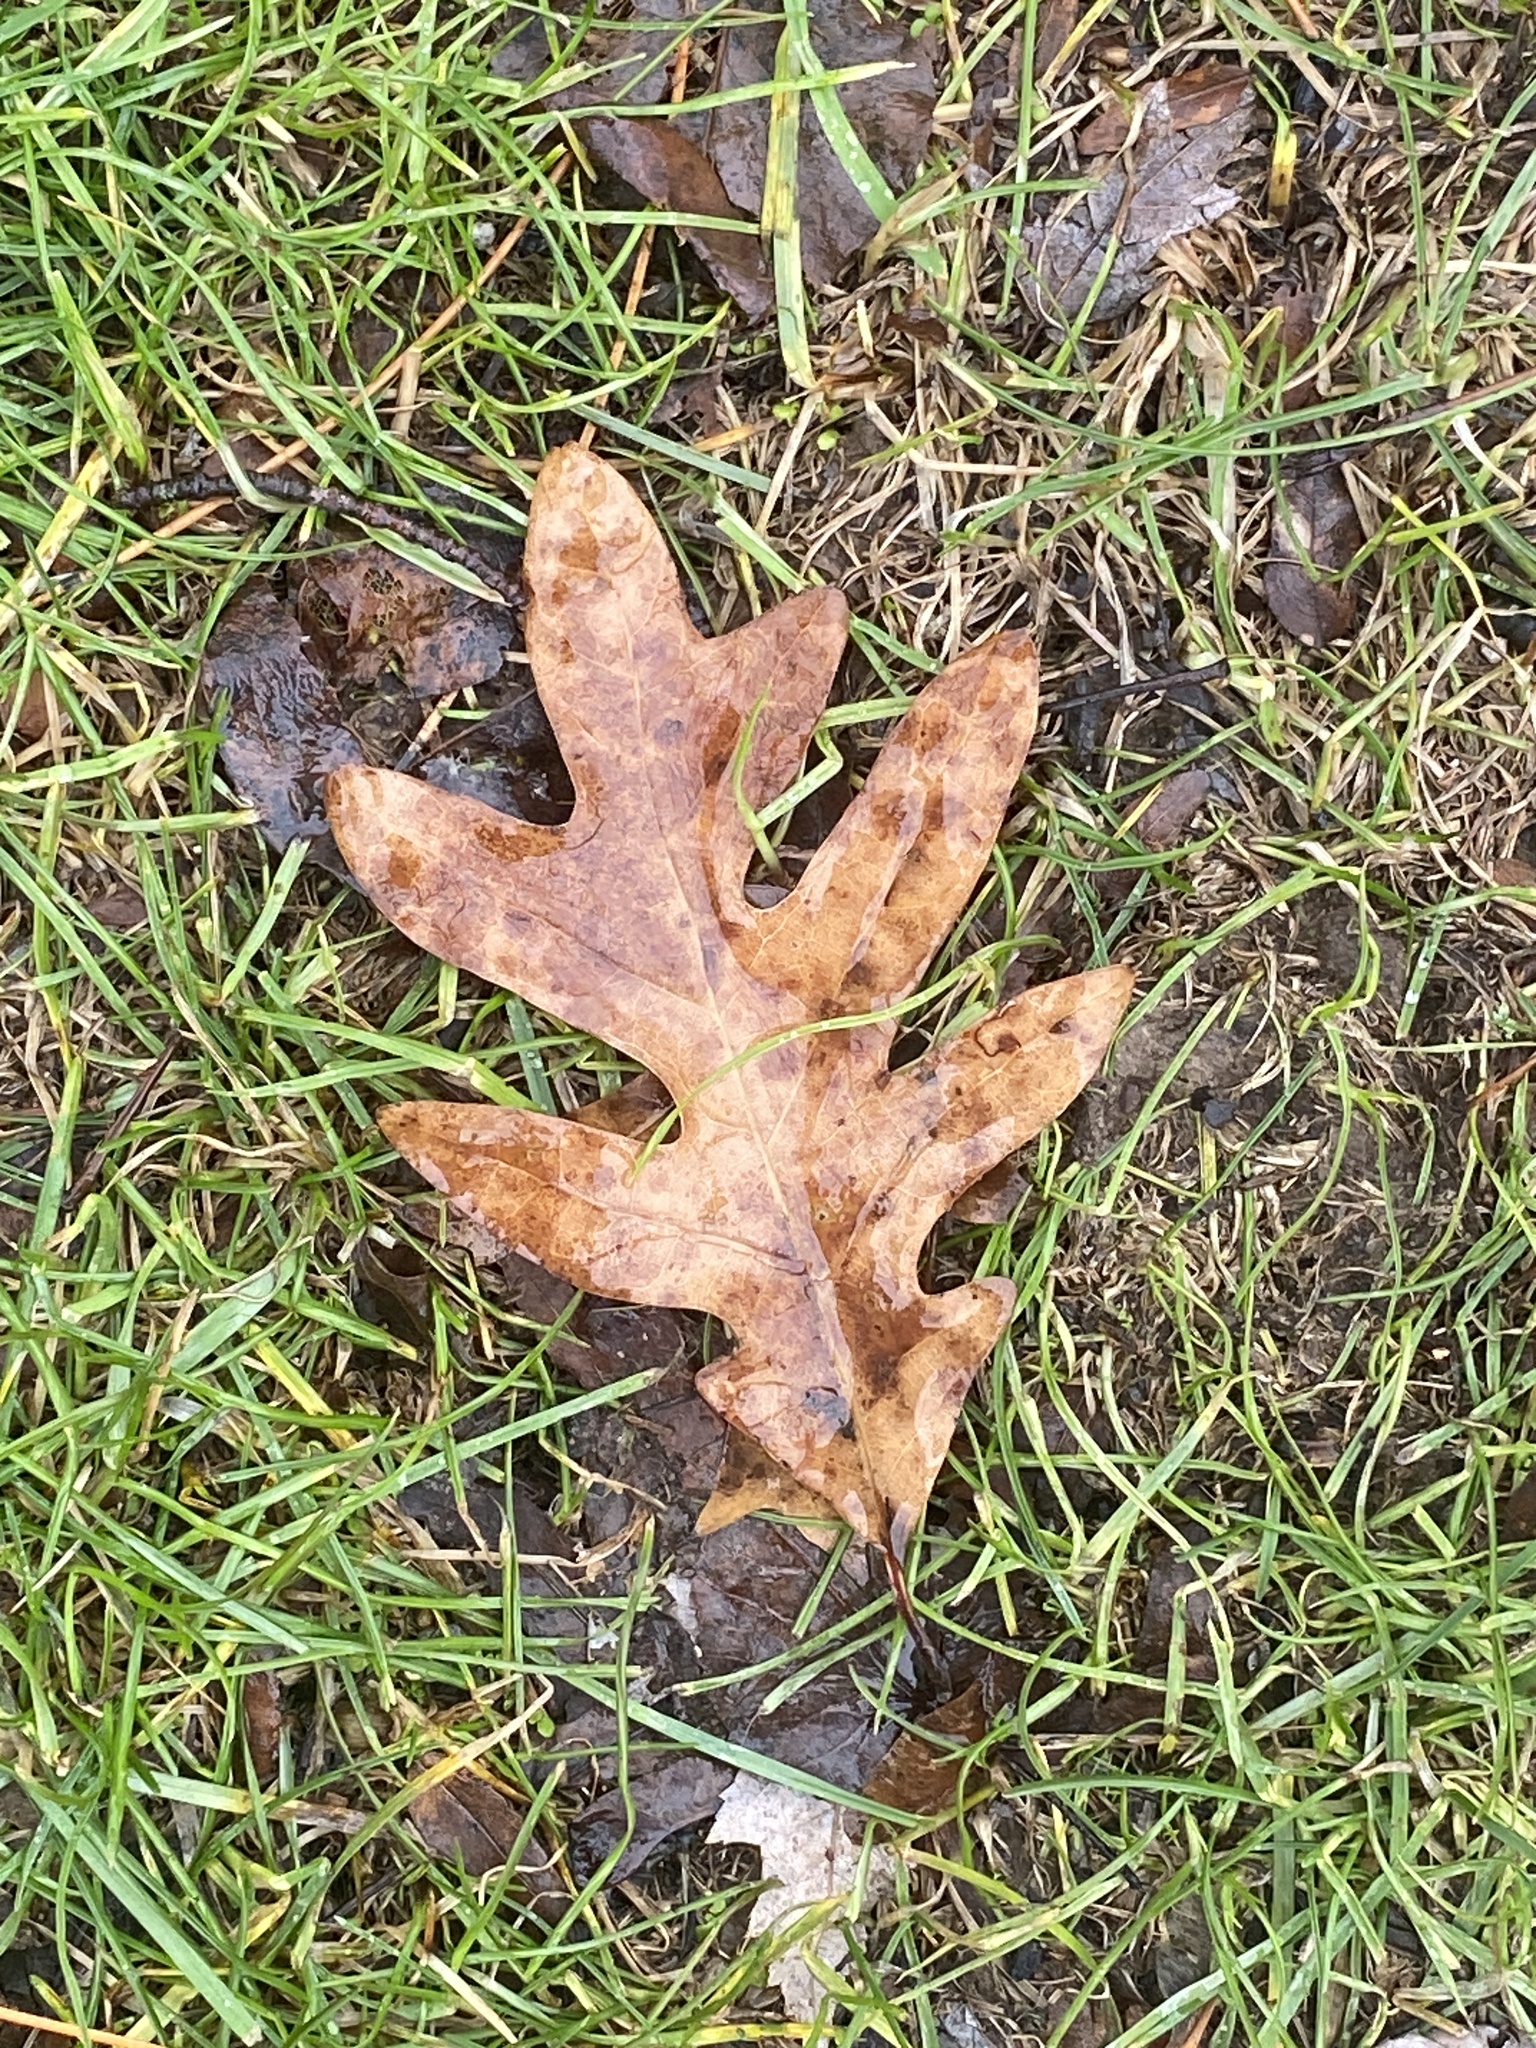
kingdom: Plantae
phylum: Tracheophyta
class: Magnoliopsida
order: Fagales
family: Fagaceae
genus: Quercus
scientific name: Quercus alba
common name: White oak
